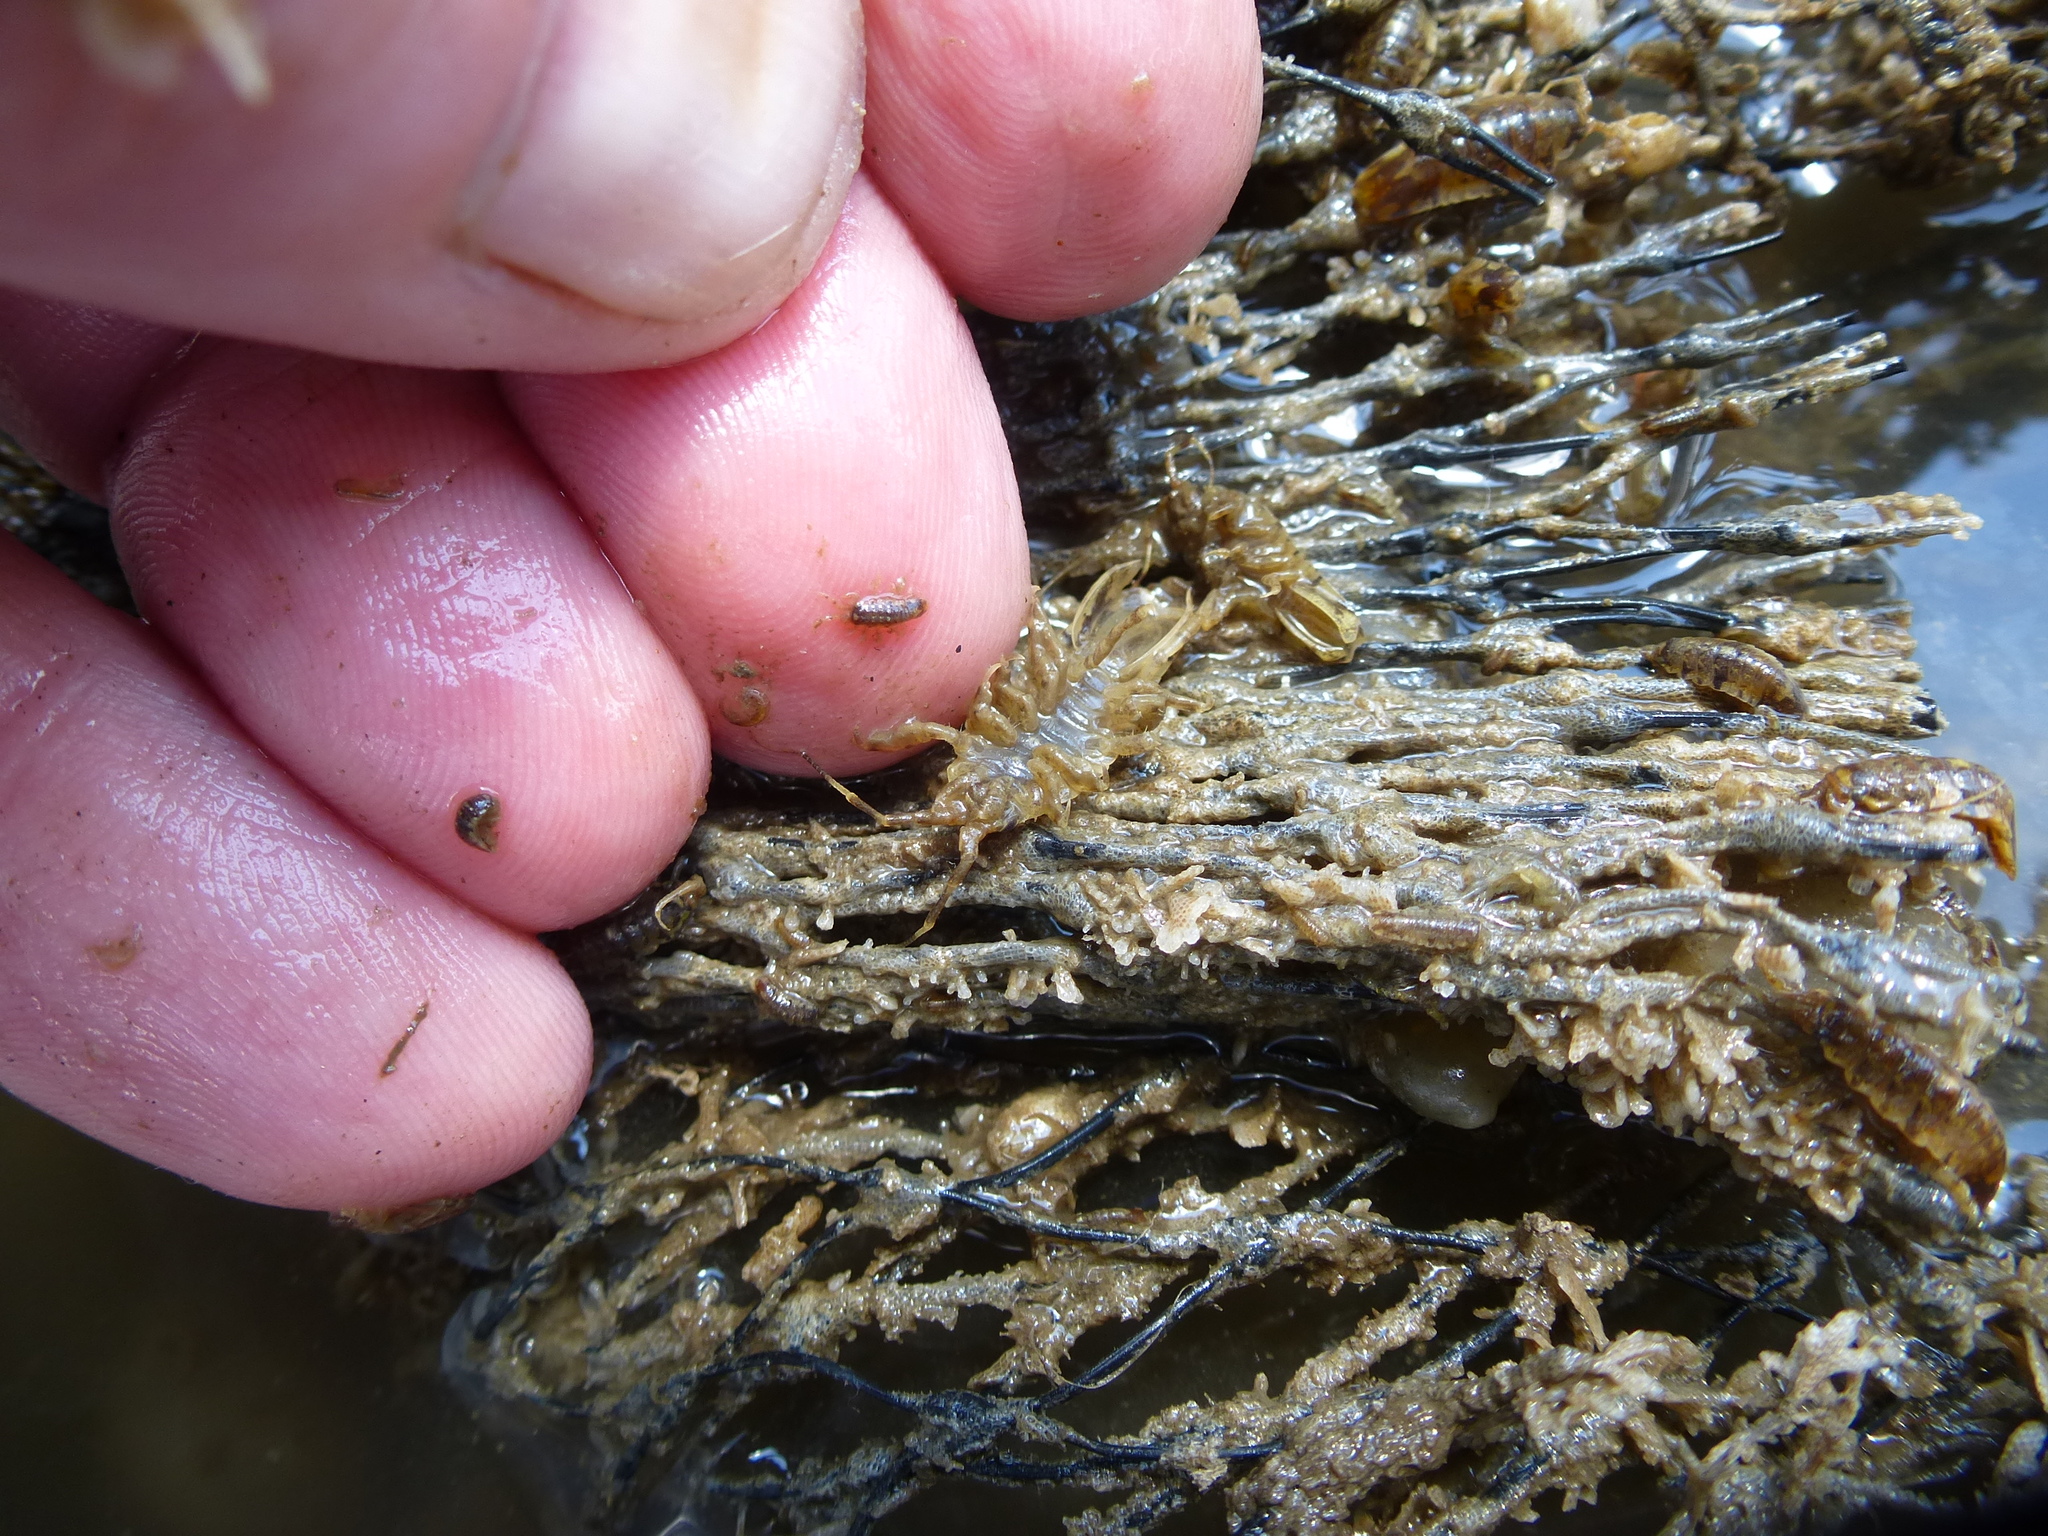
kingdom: Animalia
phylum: Arthropoda
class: Malacostraca
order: Isopoda
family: Idoteidae
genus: Synidotea
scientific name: Synidotea laticauda
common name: Isopod
